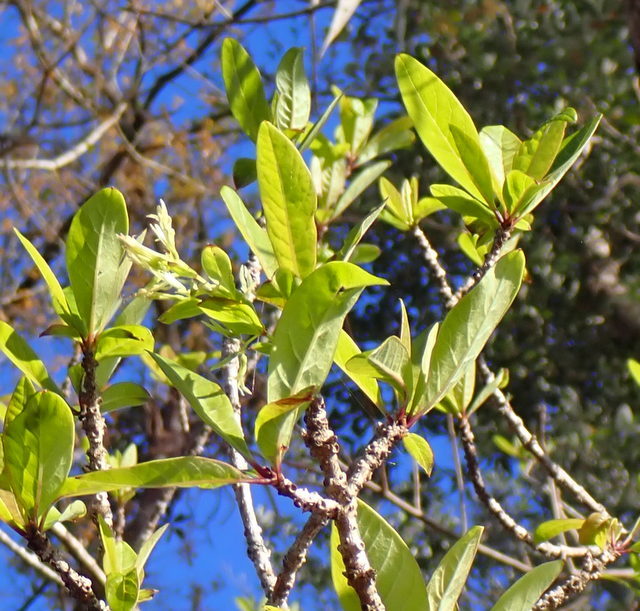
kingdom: Plantae
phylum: Tracheophyta
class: Magnoliopsida
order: Lamiales
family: Oleaceae
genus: Chionanthus
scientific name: Chionanthus virginicus
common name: American fringetree
